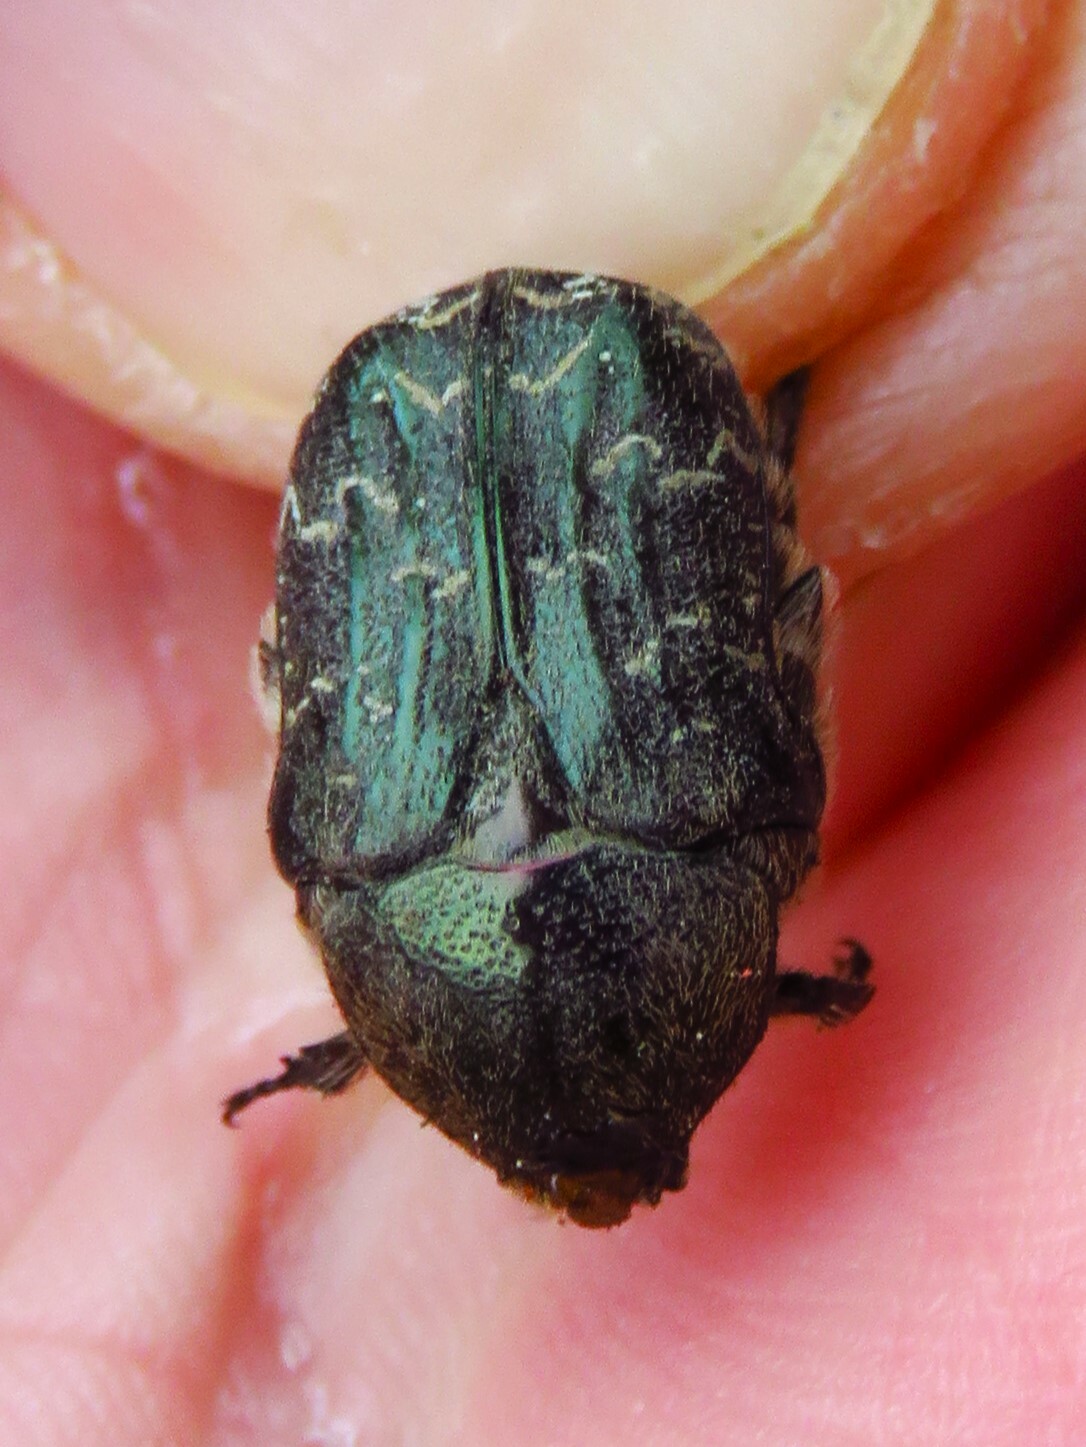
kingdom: Animalia
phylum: Arthropoda
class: Insecta
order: Coleoptera
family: Scarabaeidae
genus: Euphoria
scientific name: Euphoria sepulcralis
